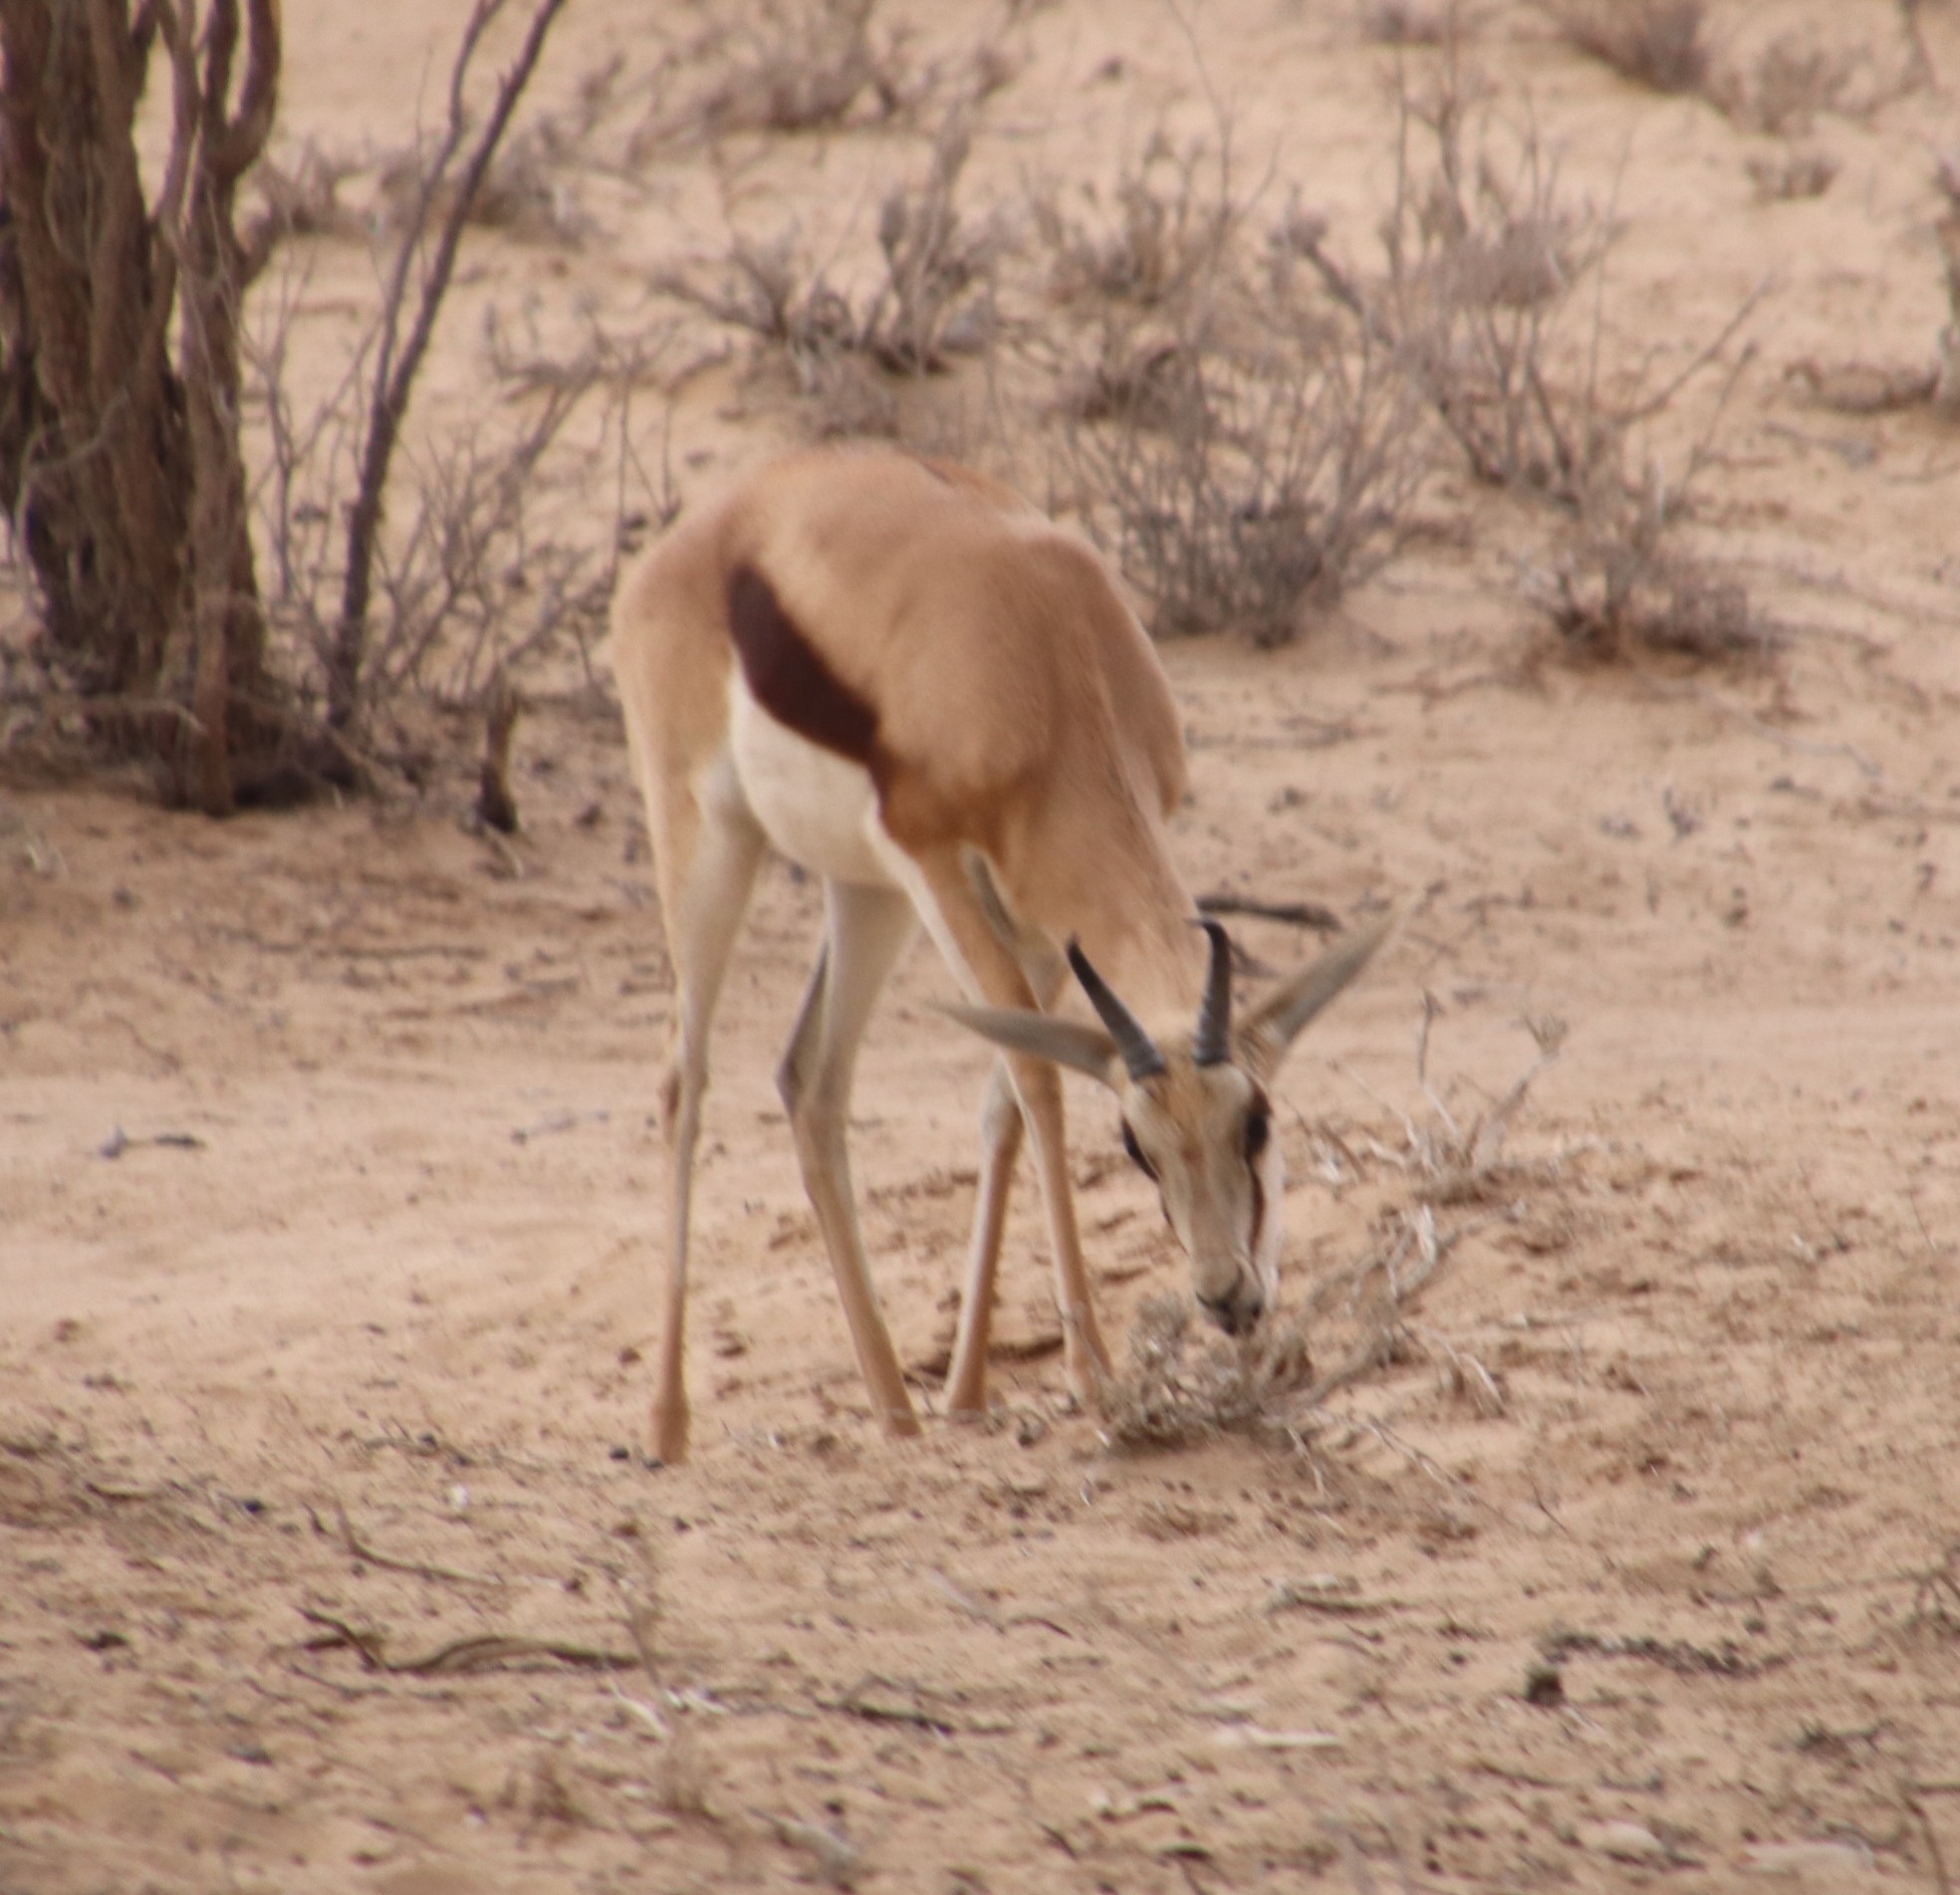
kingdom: Animalia
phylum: Chordata
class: Mammalia
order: Artiodactyla
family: Bovidae
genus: Antidorcas
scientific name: Antidorcas marsupialis
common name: Springbok
